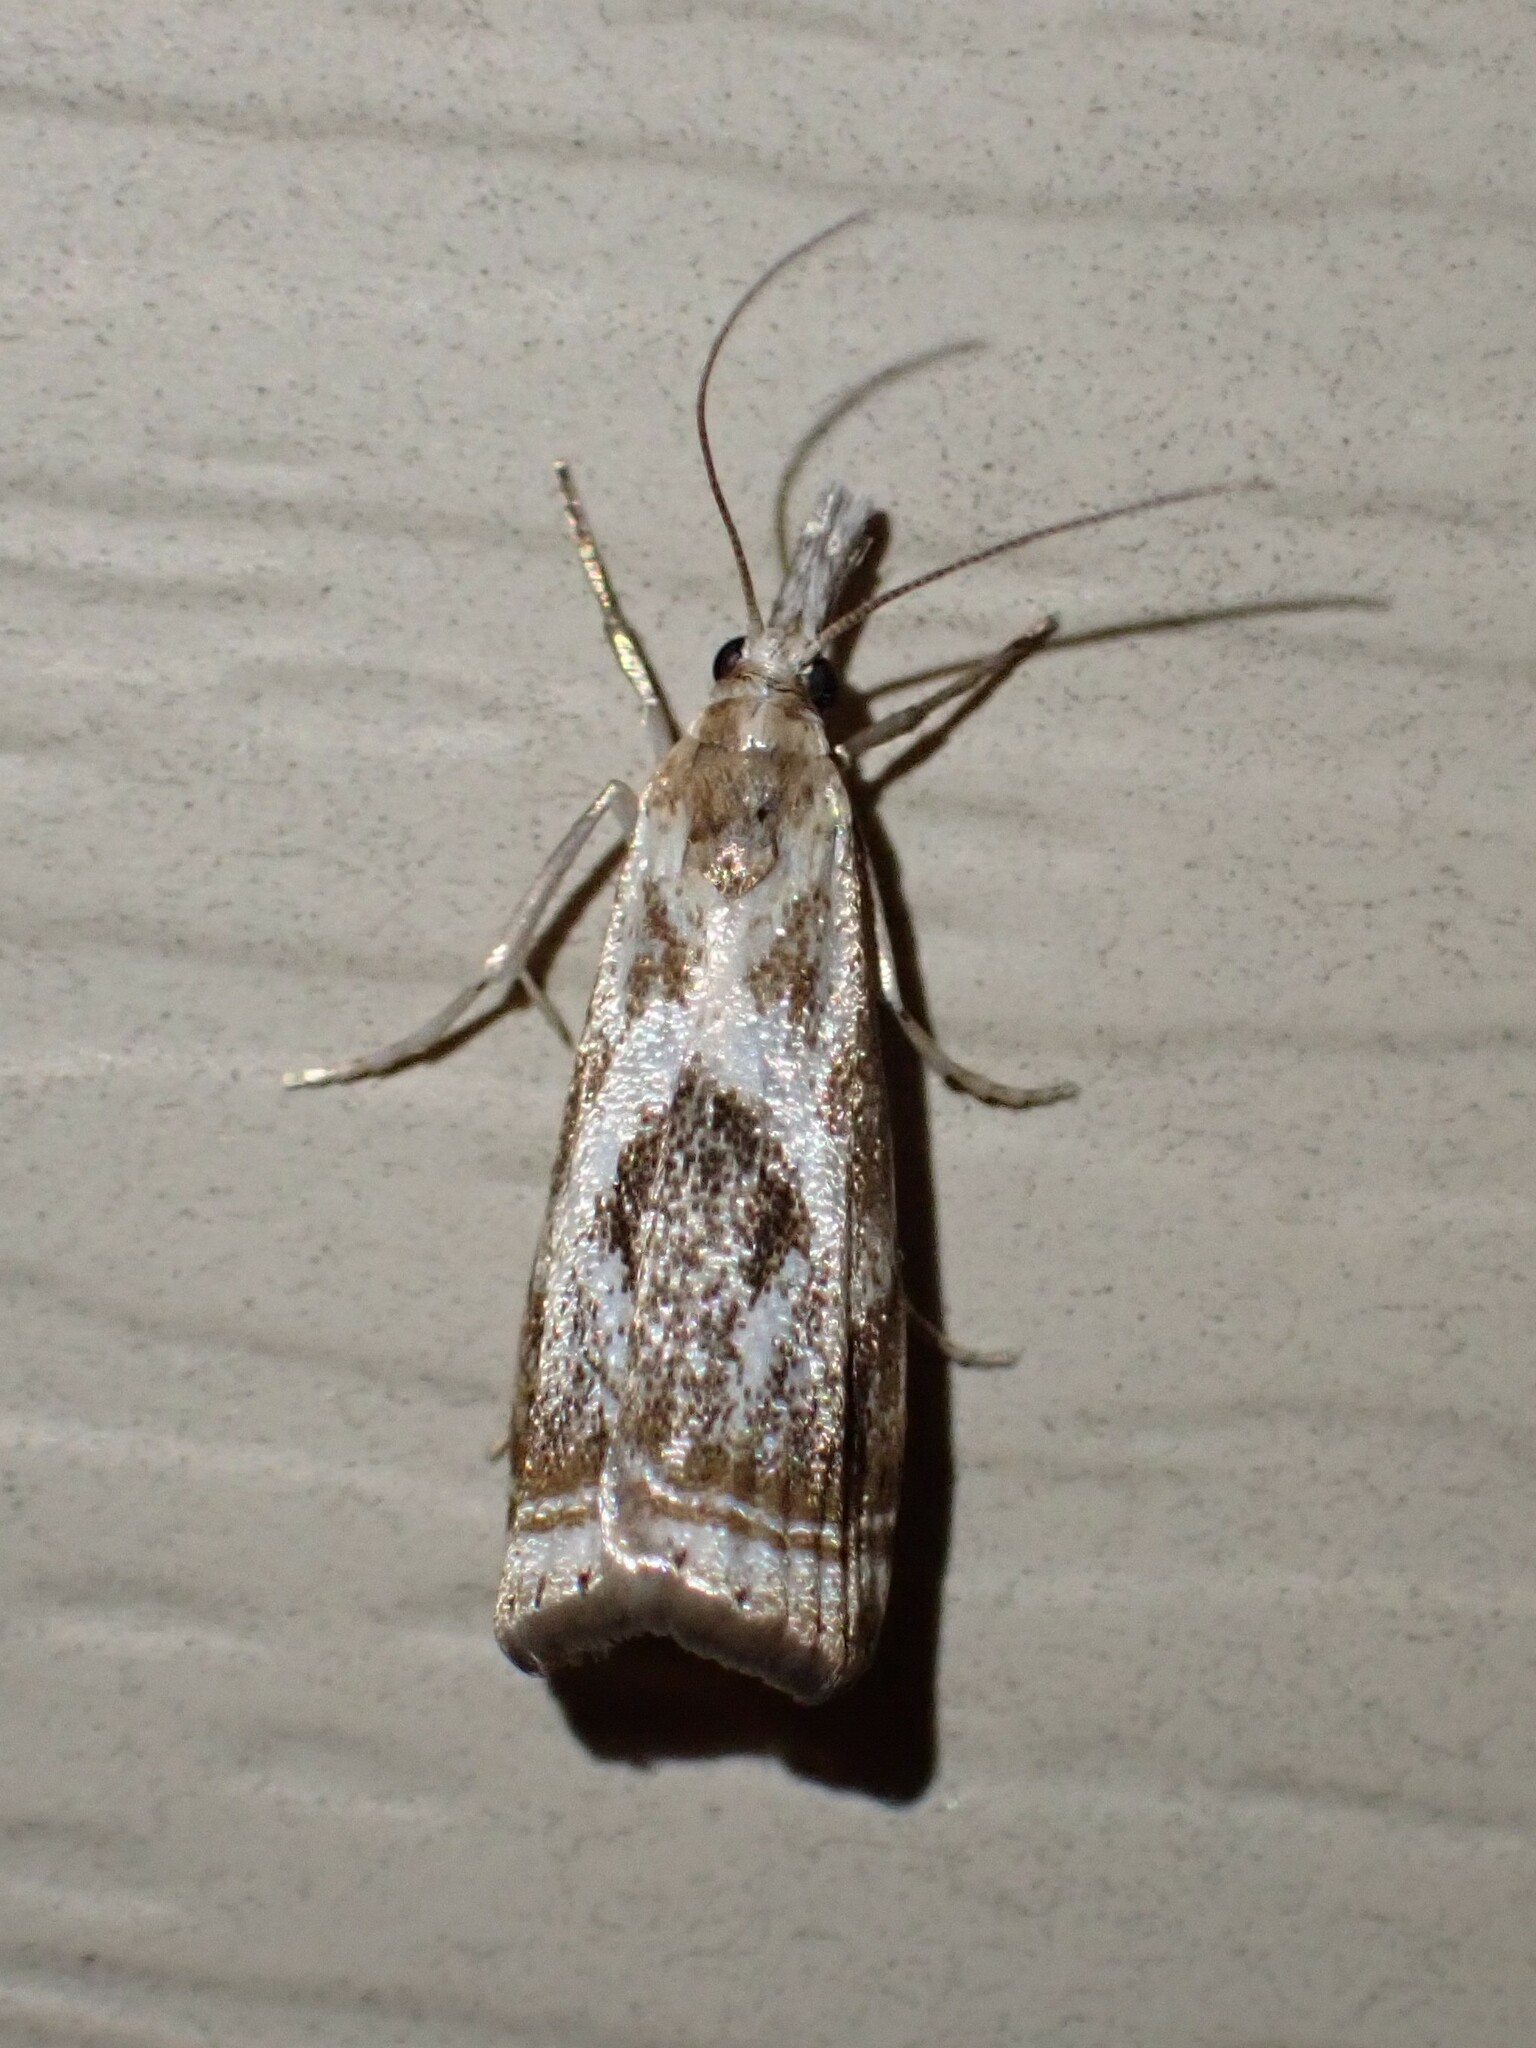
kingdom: Animalia
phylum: Arthropoda
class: Insecta
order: Lepidoptera
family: Crambidae
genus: Microcrambus
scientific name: Microcrambus elegans
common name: Elegant grass-veneer
